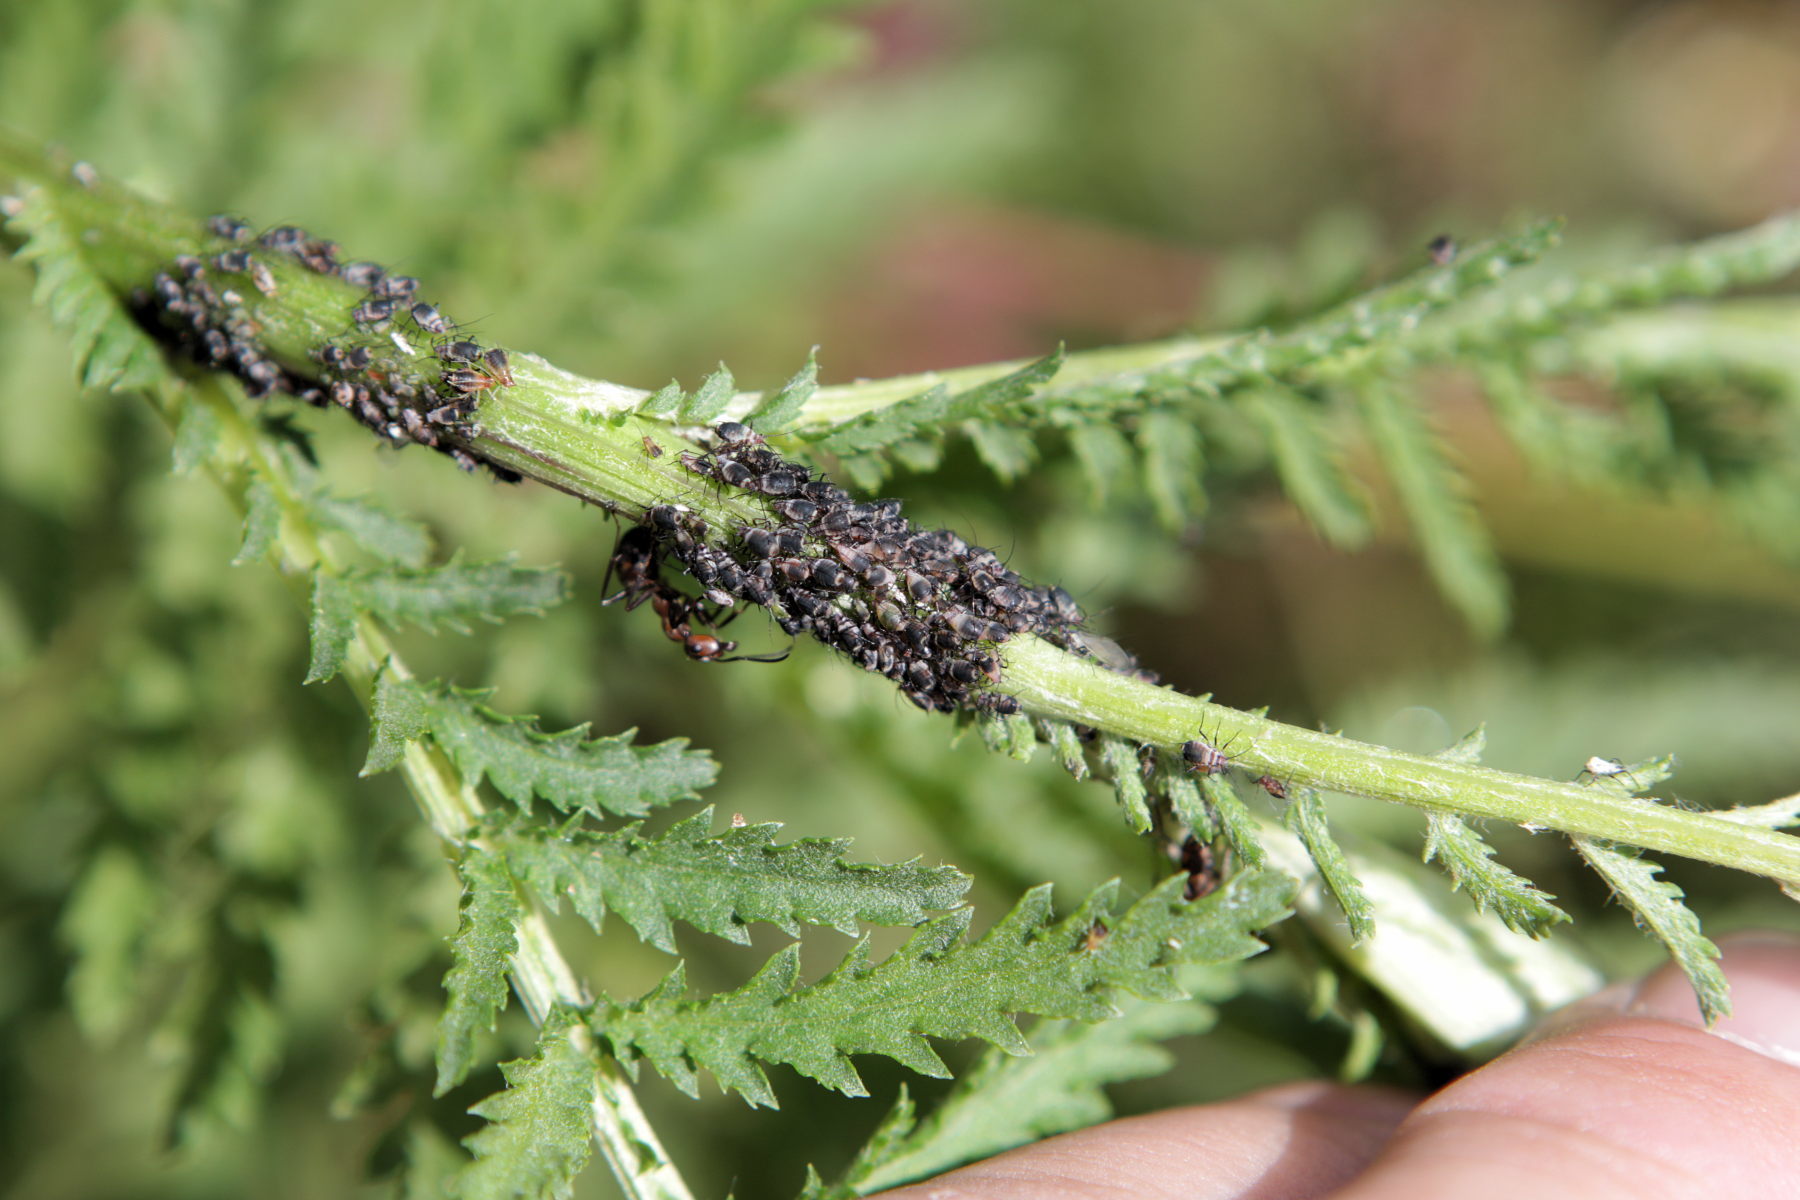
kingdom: Animalia
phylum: Arthropoda
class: Insecta
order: Hemiptera
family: Aphididae
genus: Metopeurum
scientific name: Metopeurum fuscoviride
